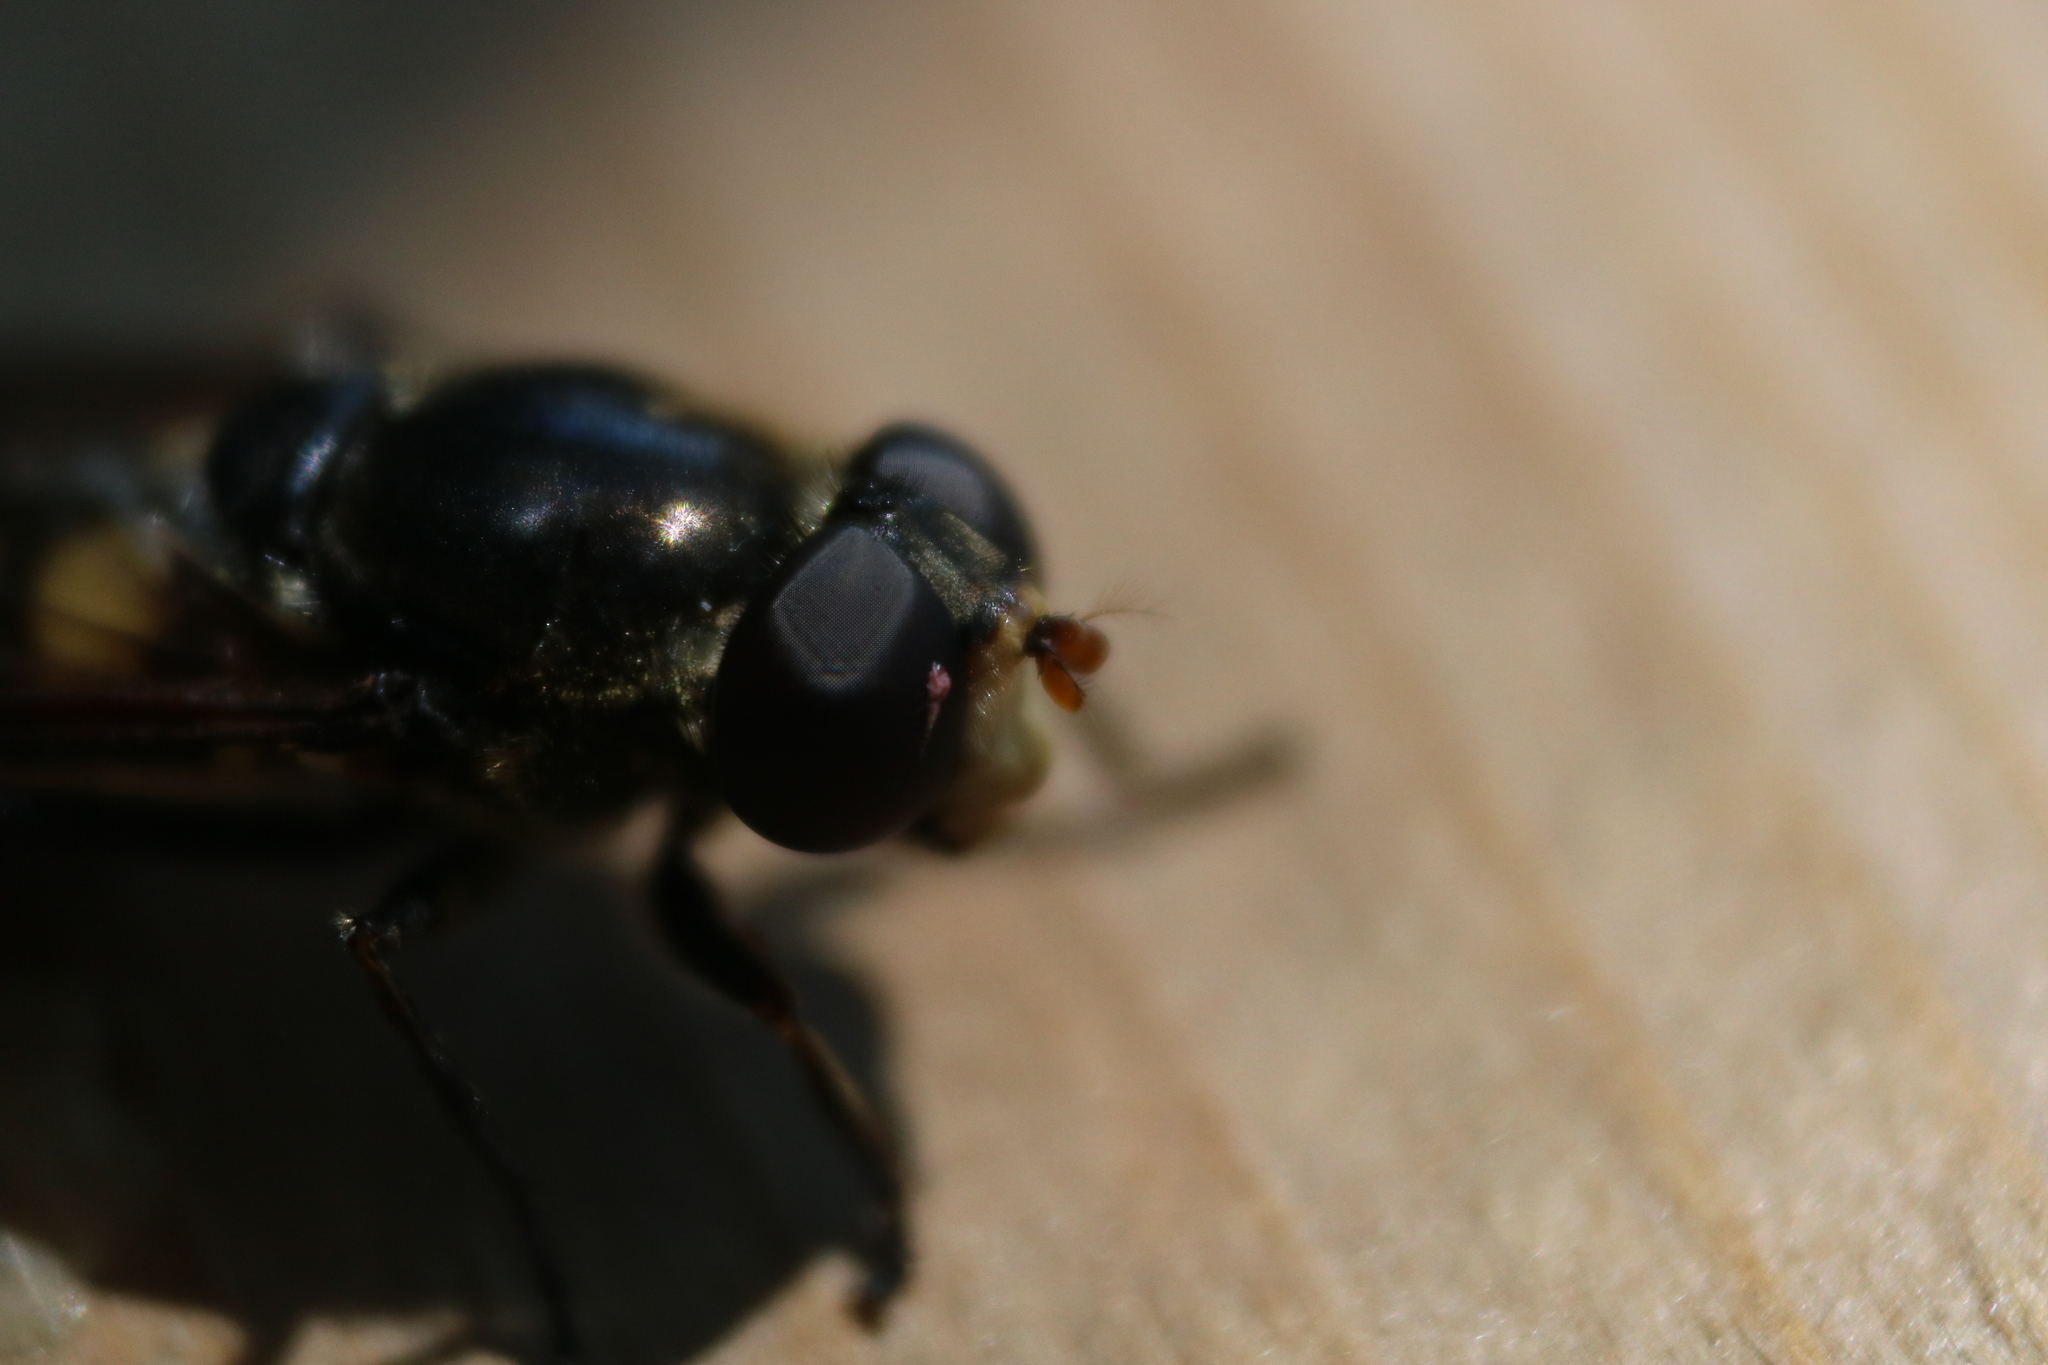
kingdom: Animalia
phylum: Arthropoda
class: Insecta
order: Diptera
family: Syrphidae
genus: Sericomyia
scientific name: Sericomyia lata
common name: White-spotted pond fly
